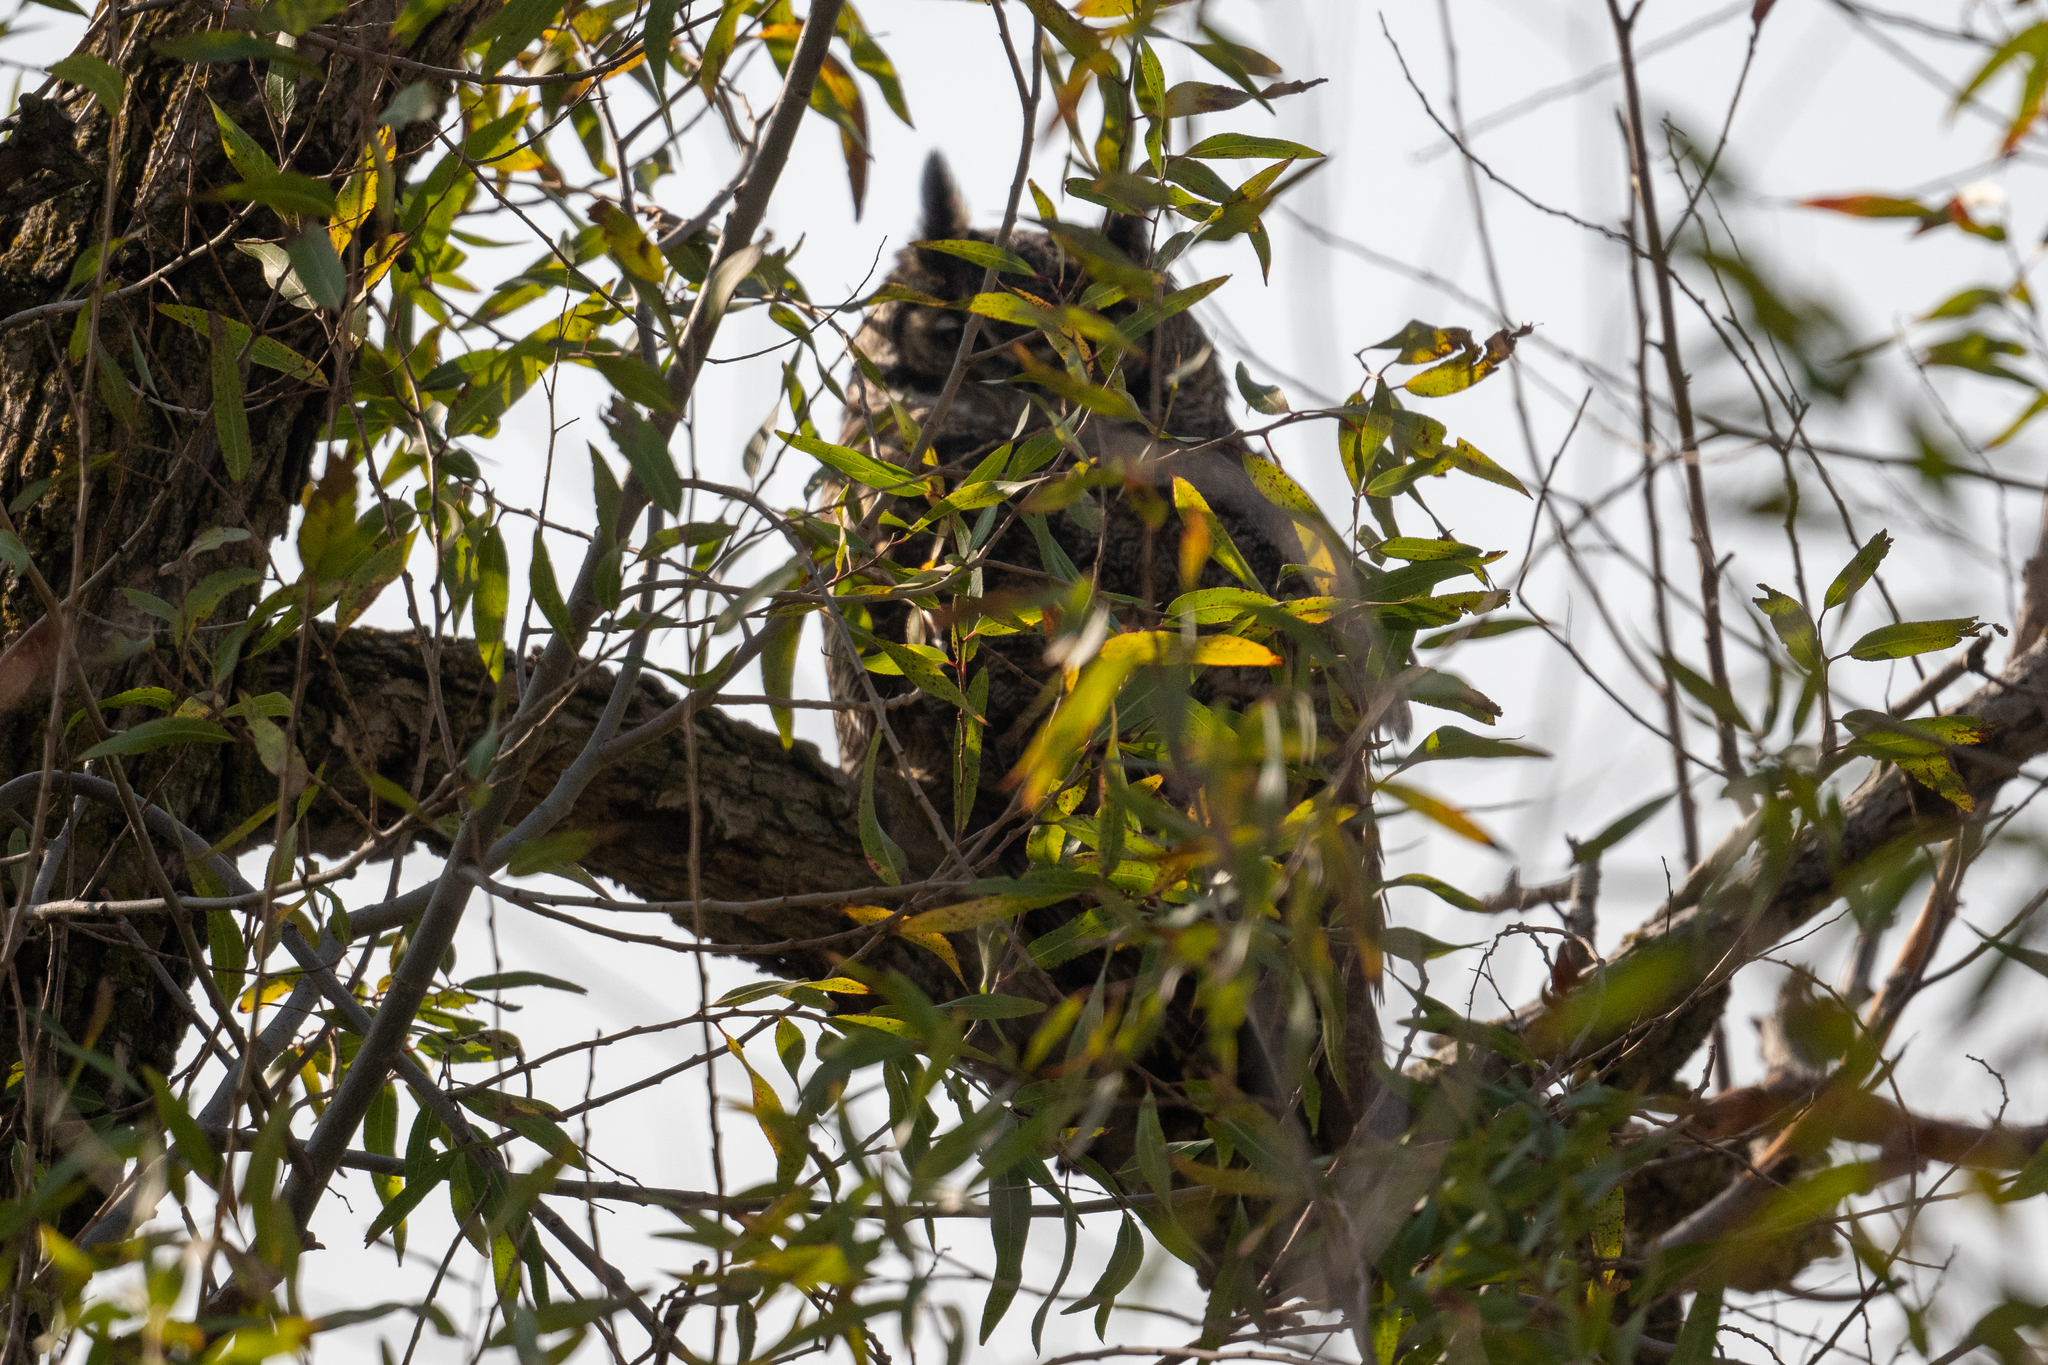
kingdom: Animalia
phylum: Chordata
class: Aves
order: Strigiformes
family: Strigidae
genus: Bubo
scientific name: Bubo virginianus
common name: Great horned owl
